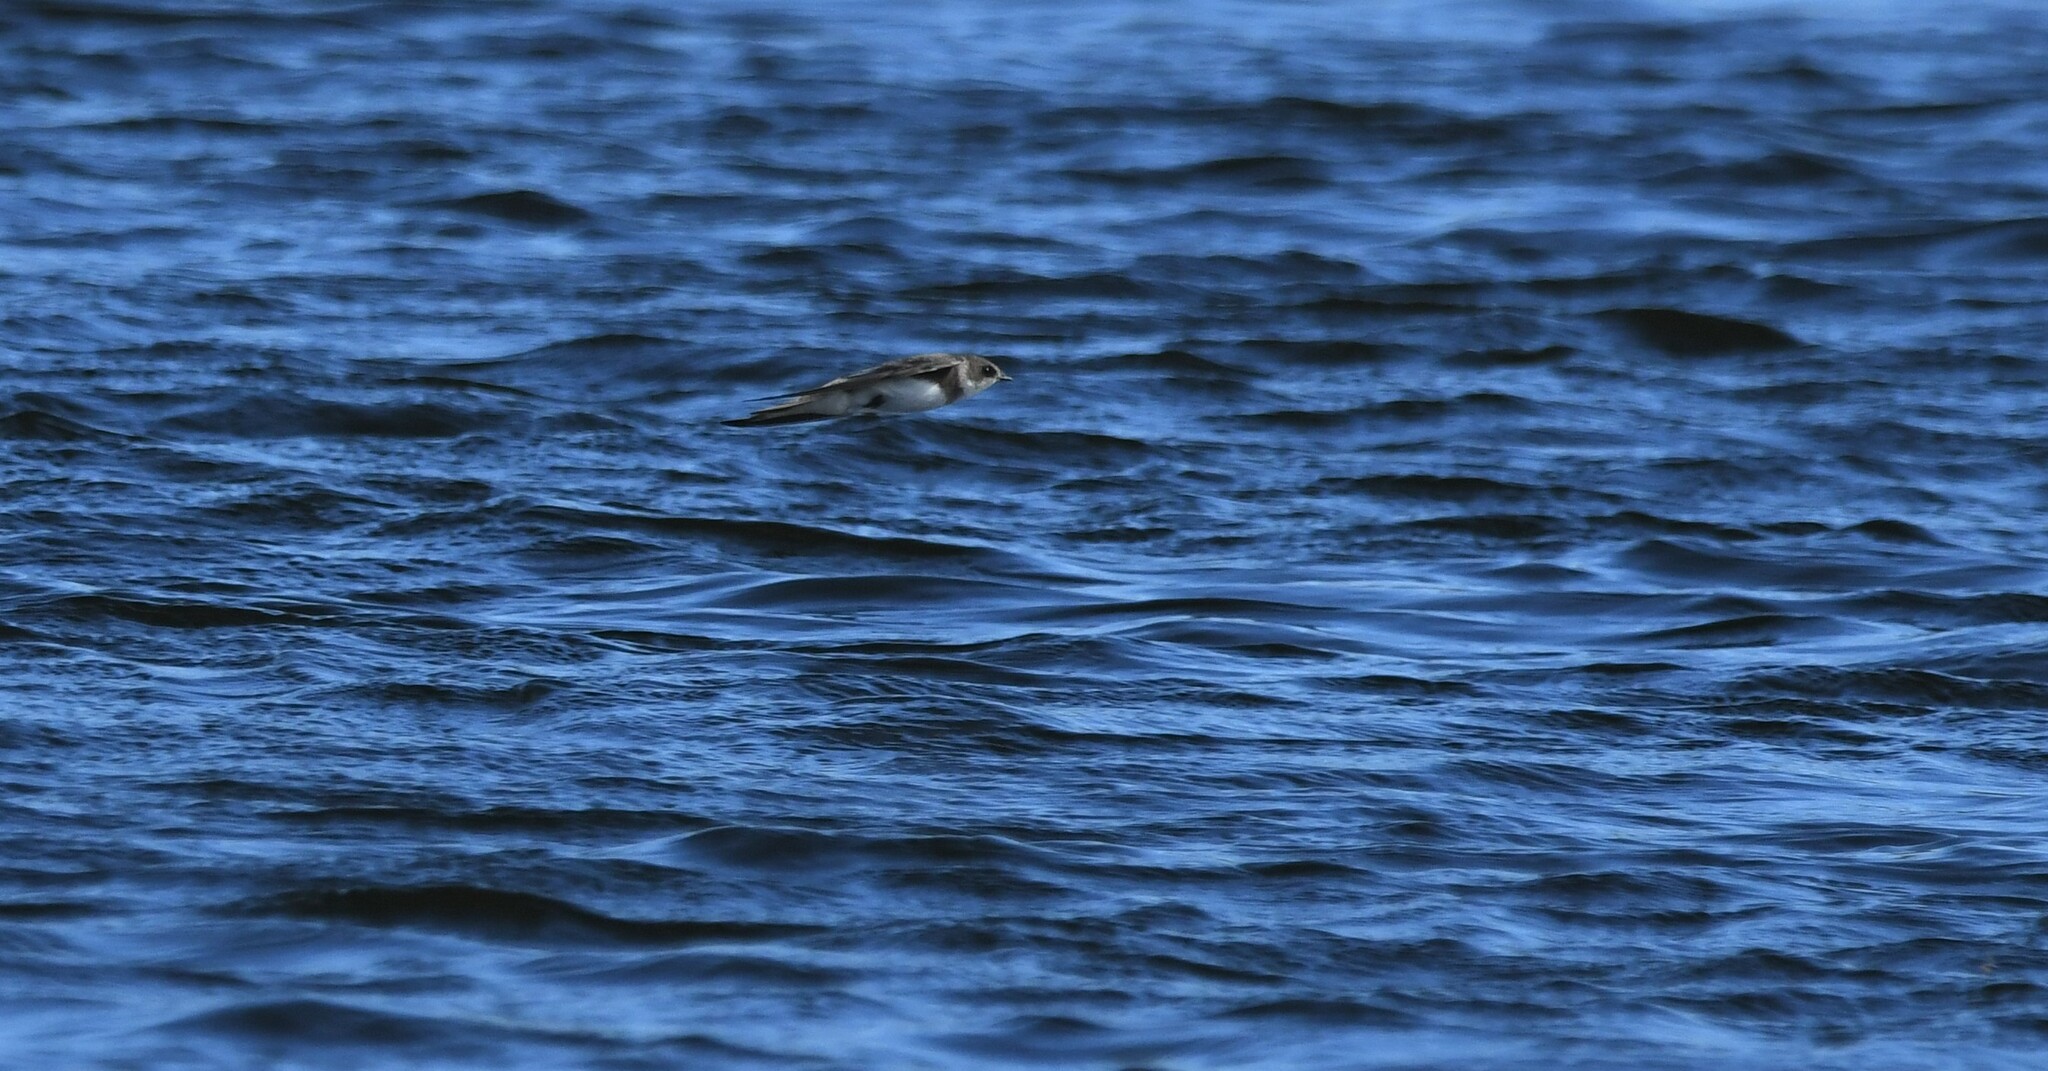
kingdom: Animalia
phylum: Chordata
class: Aves
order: Passeriformes
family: Hirundinidae
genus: Riparia
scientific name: Riparia riparia
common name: Sand martin
